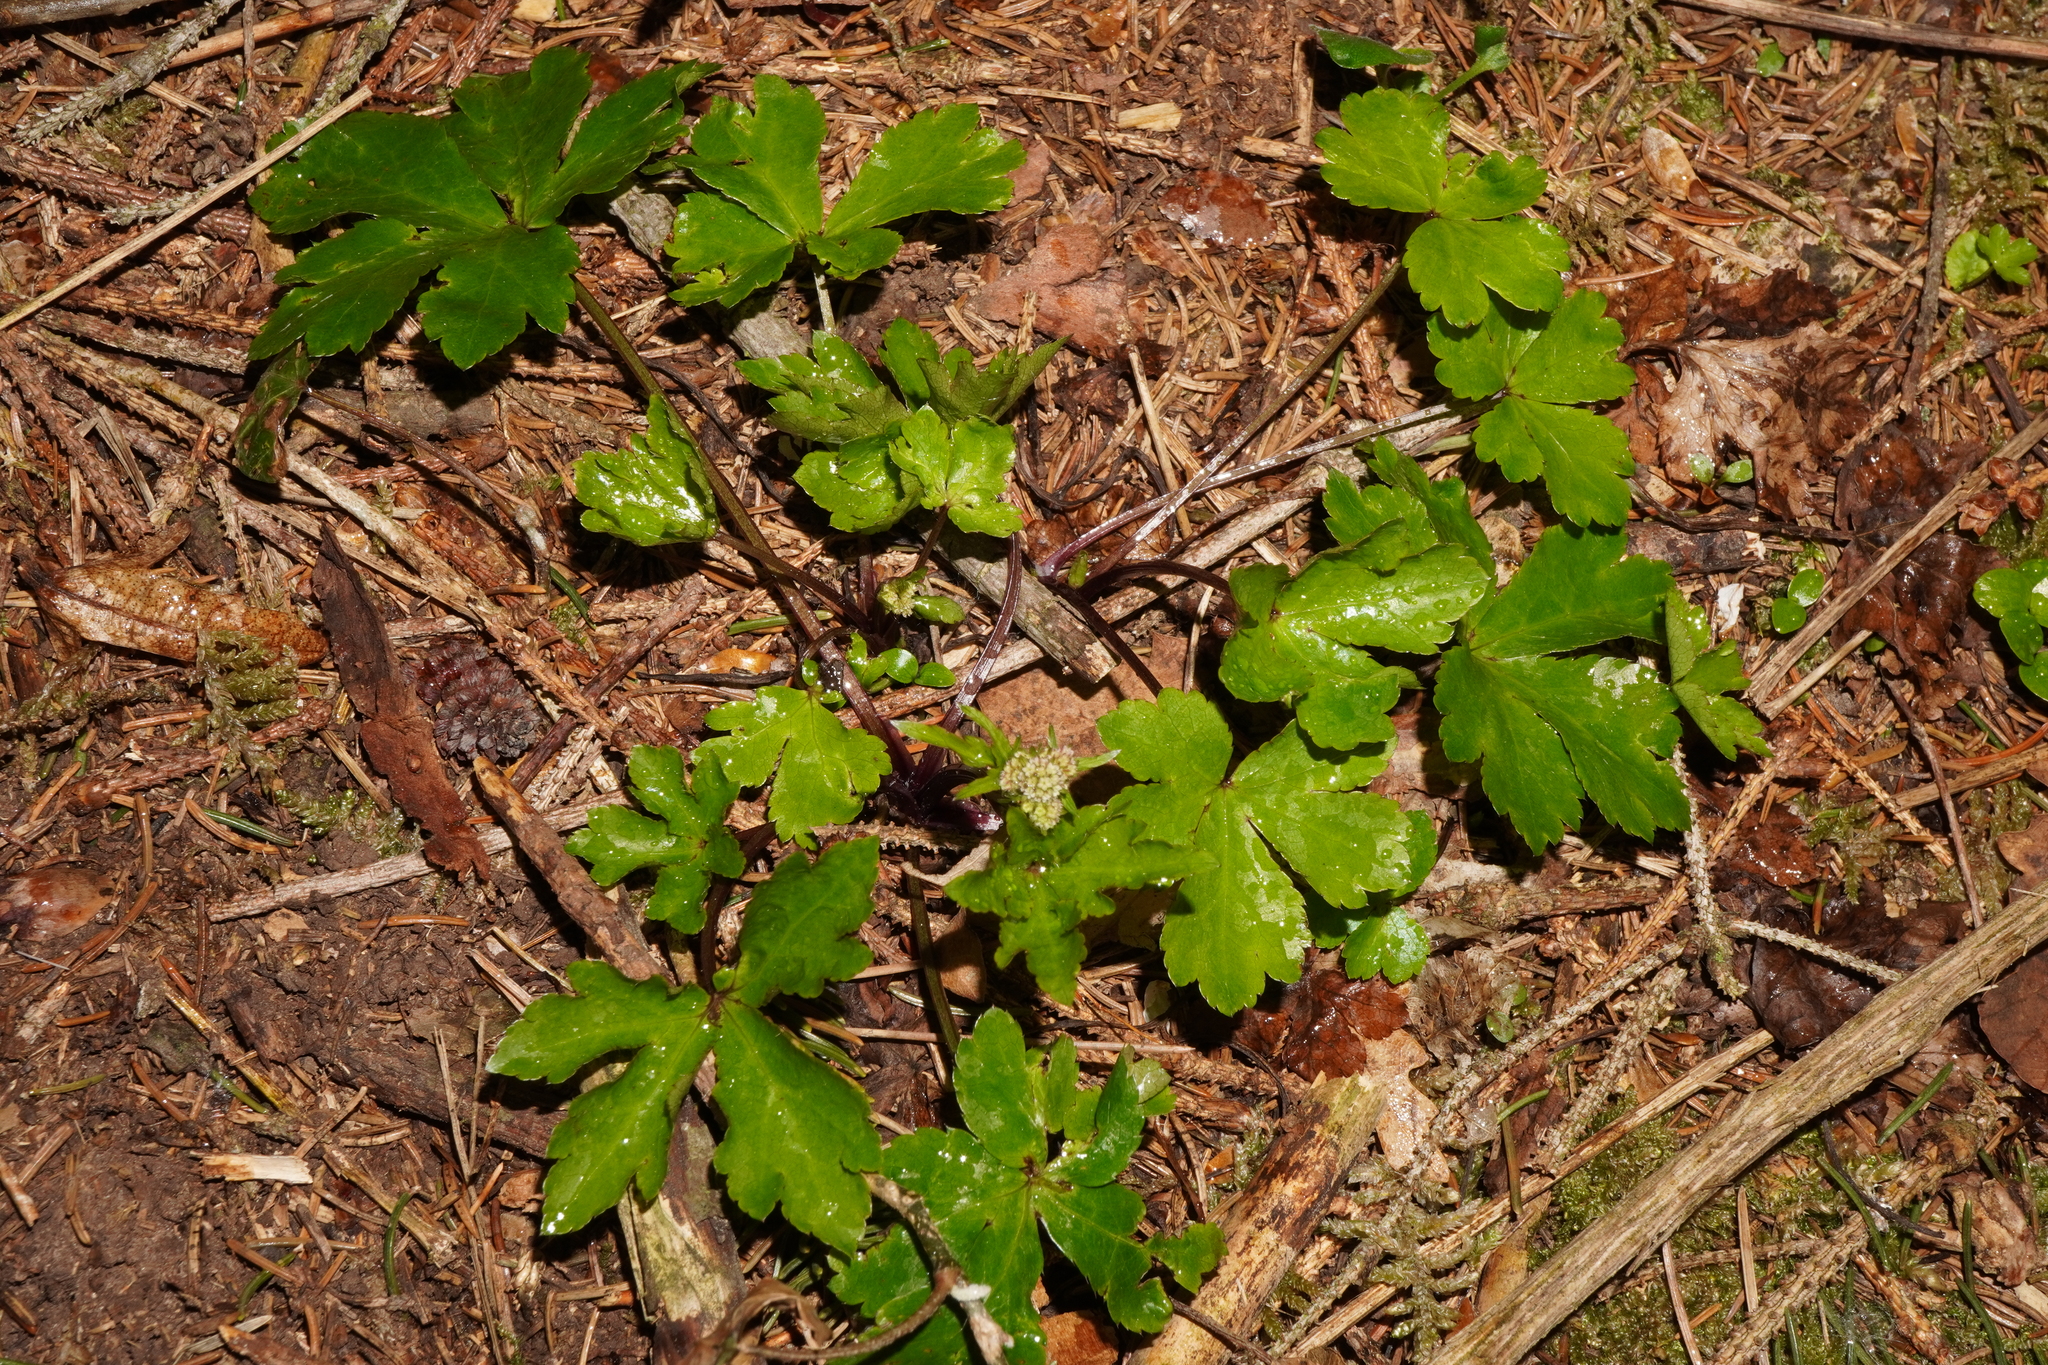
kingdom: Plantae
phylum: Tracheophyta
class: Magnoliopsida
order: Apiales
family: Apiaceae
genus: Sanicula
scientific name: Sanicula europaea
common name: Sanicle
